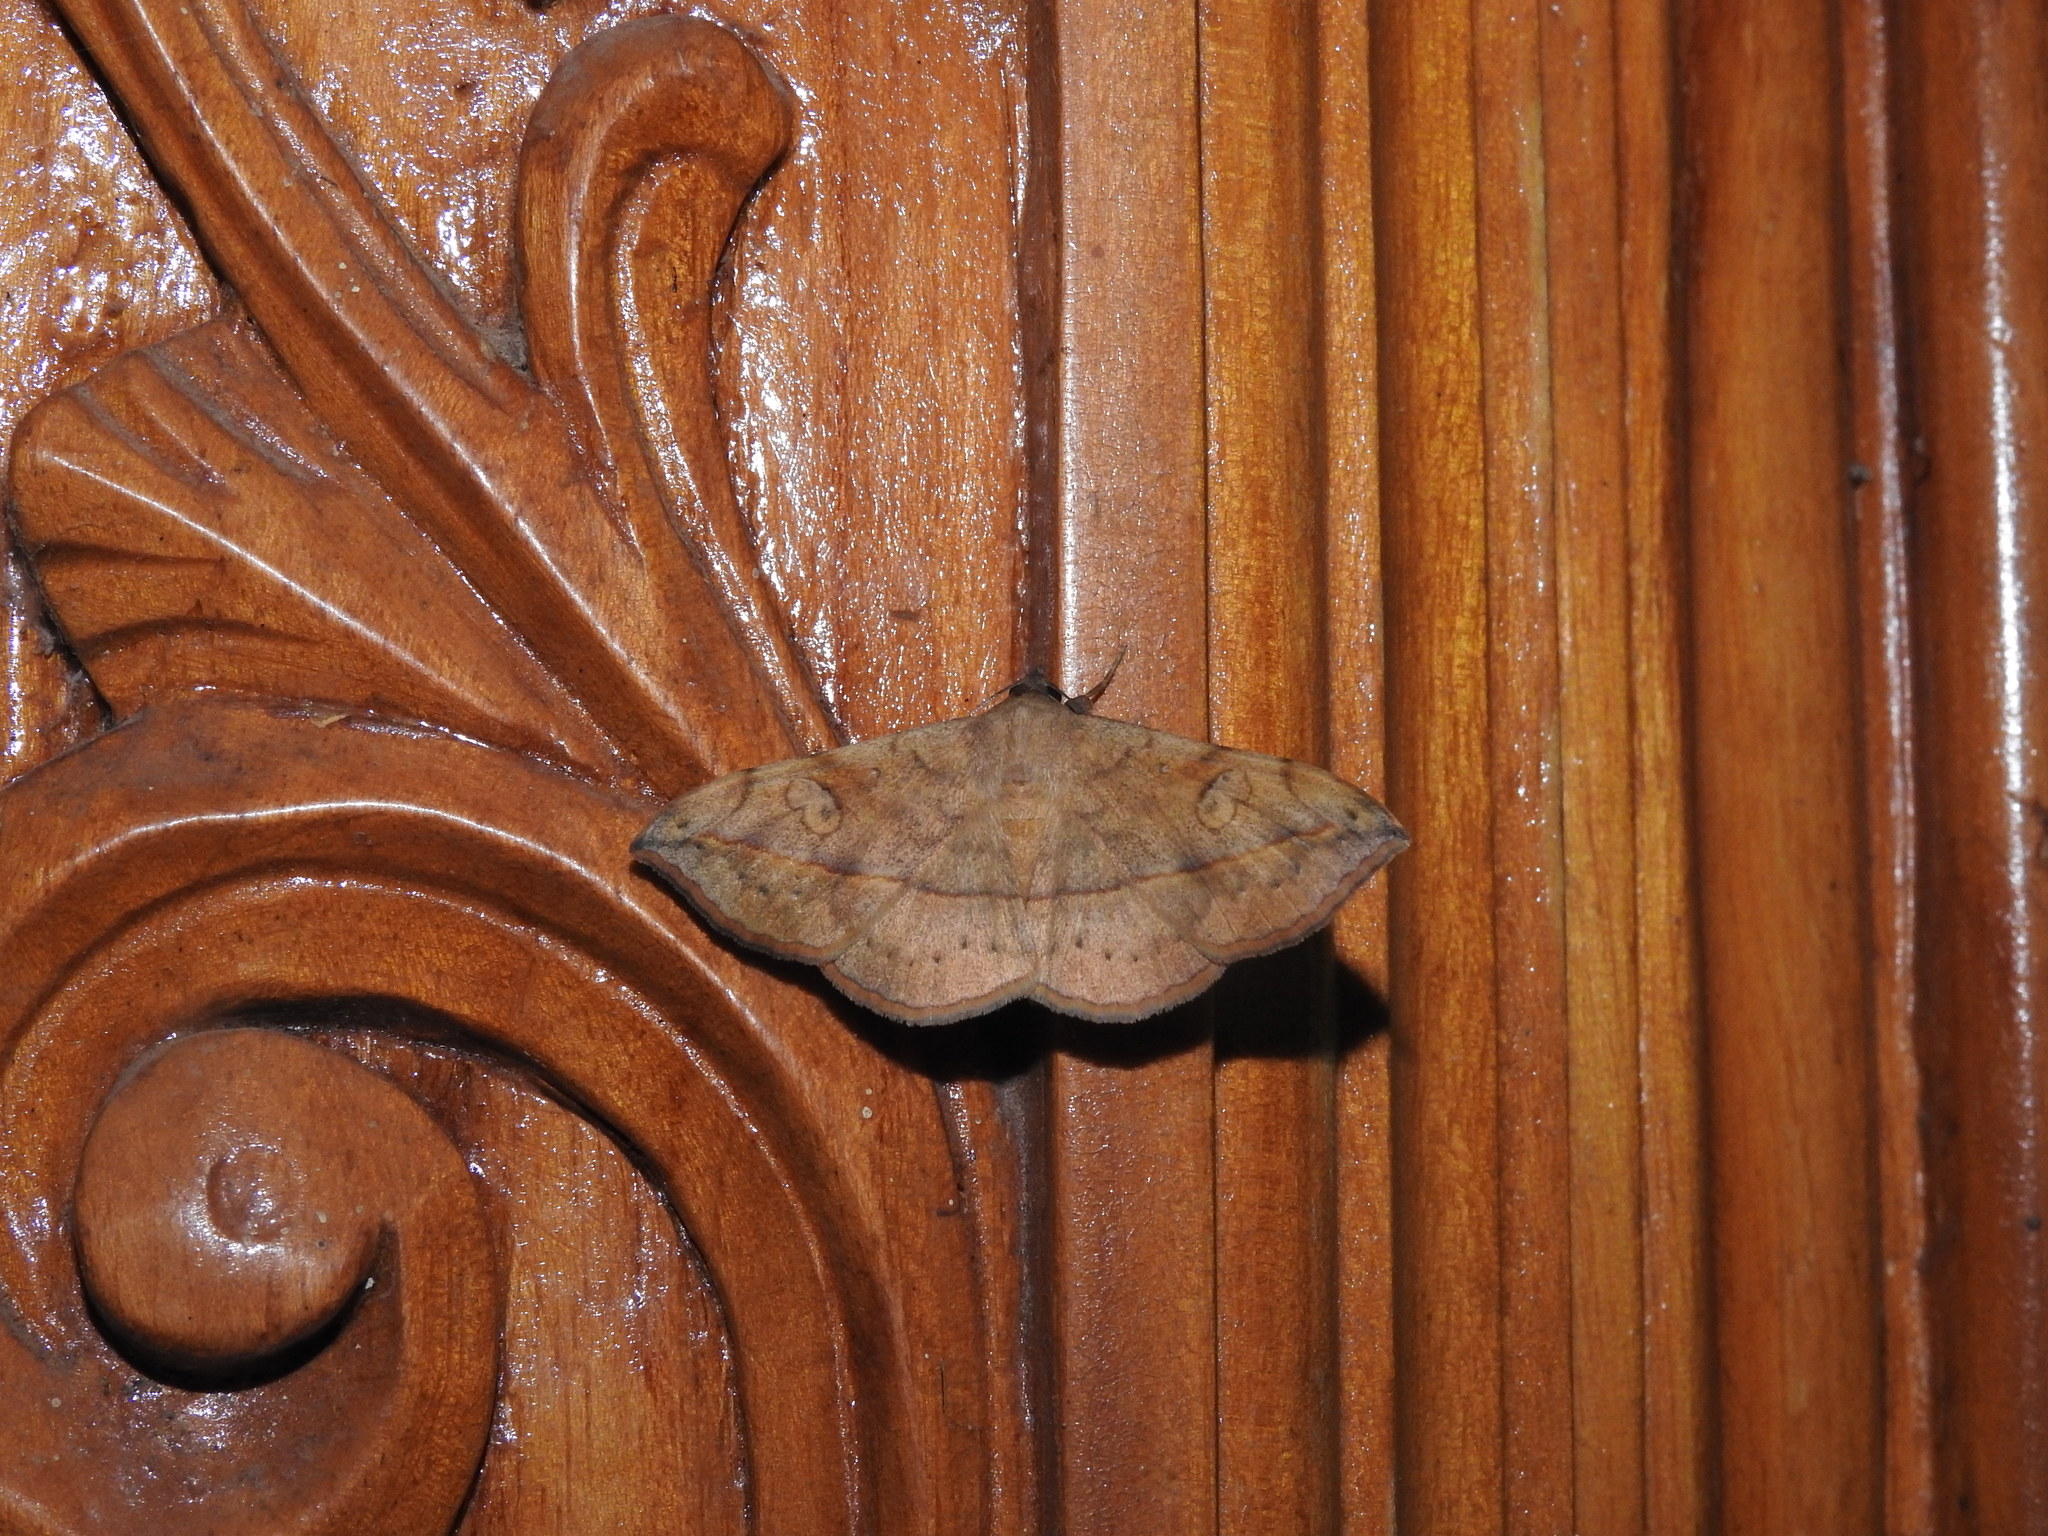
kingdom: Animalia
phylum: Arthropoda
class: Insecta
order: Lepidoptera
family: Erebidae
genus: Anticarsia
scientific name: Anticarsia irrorata
